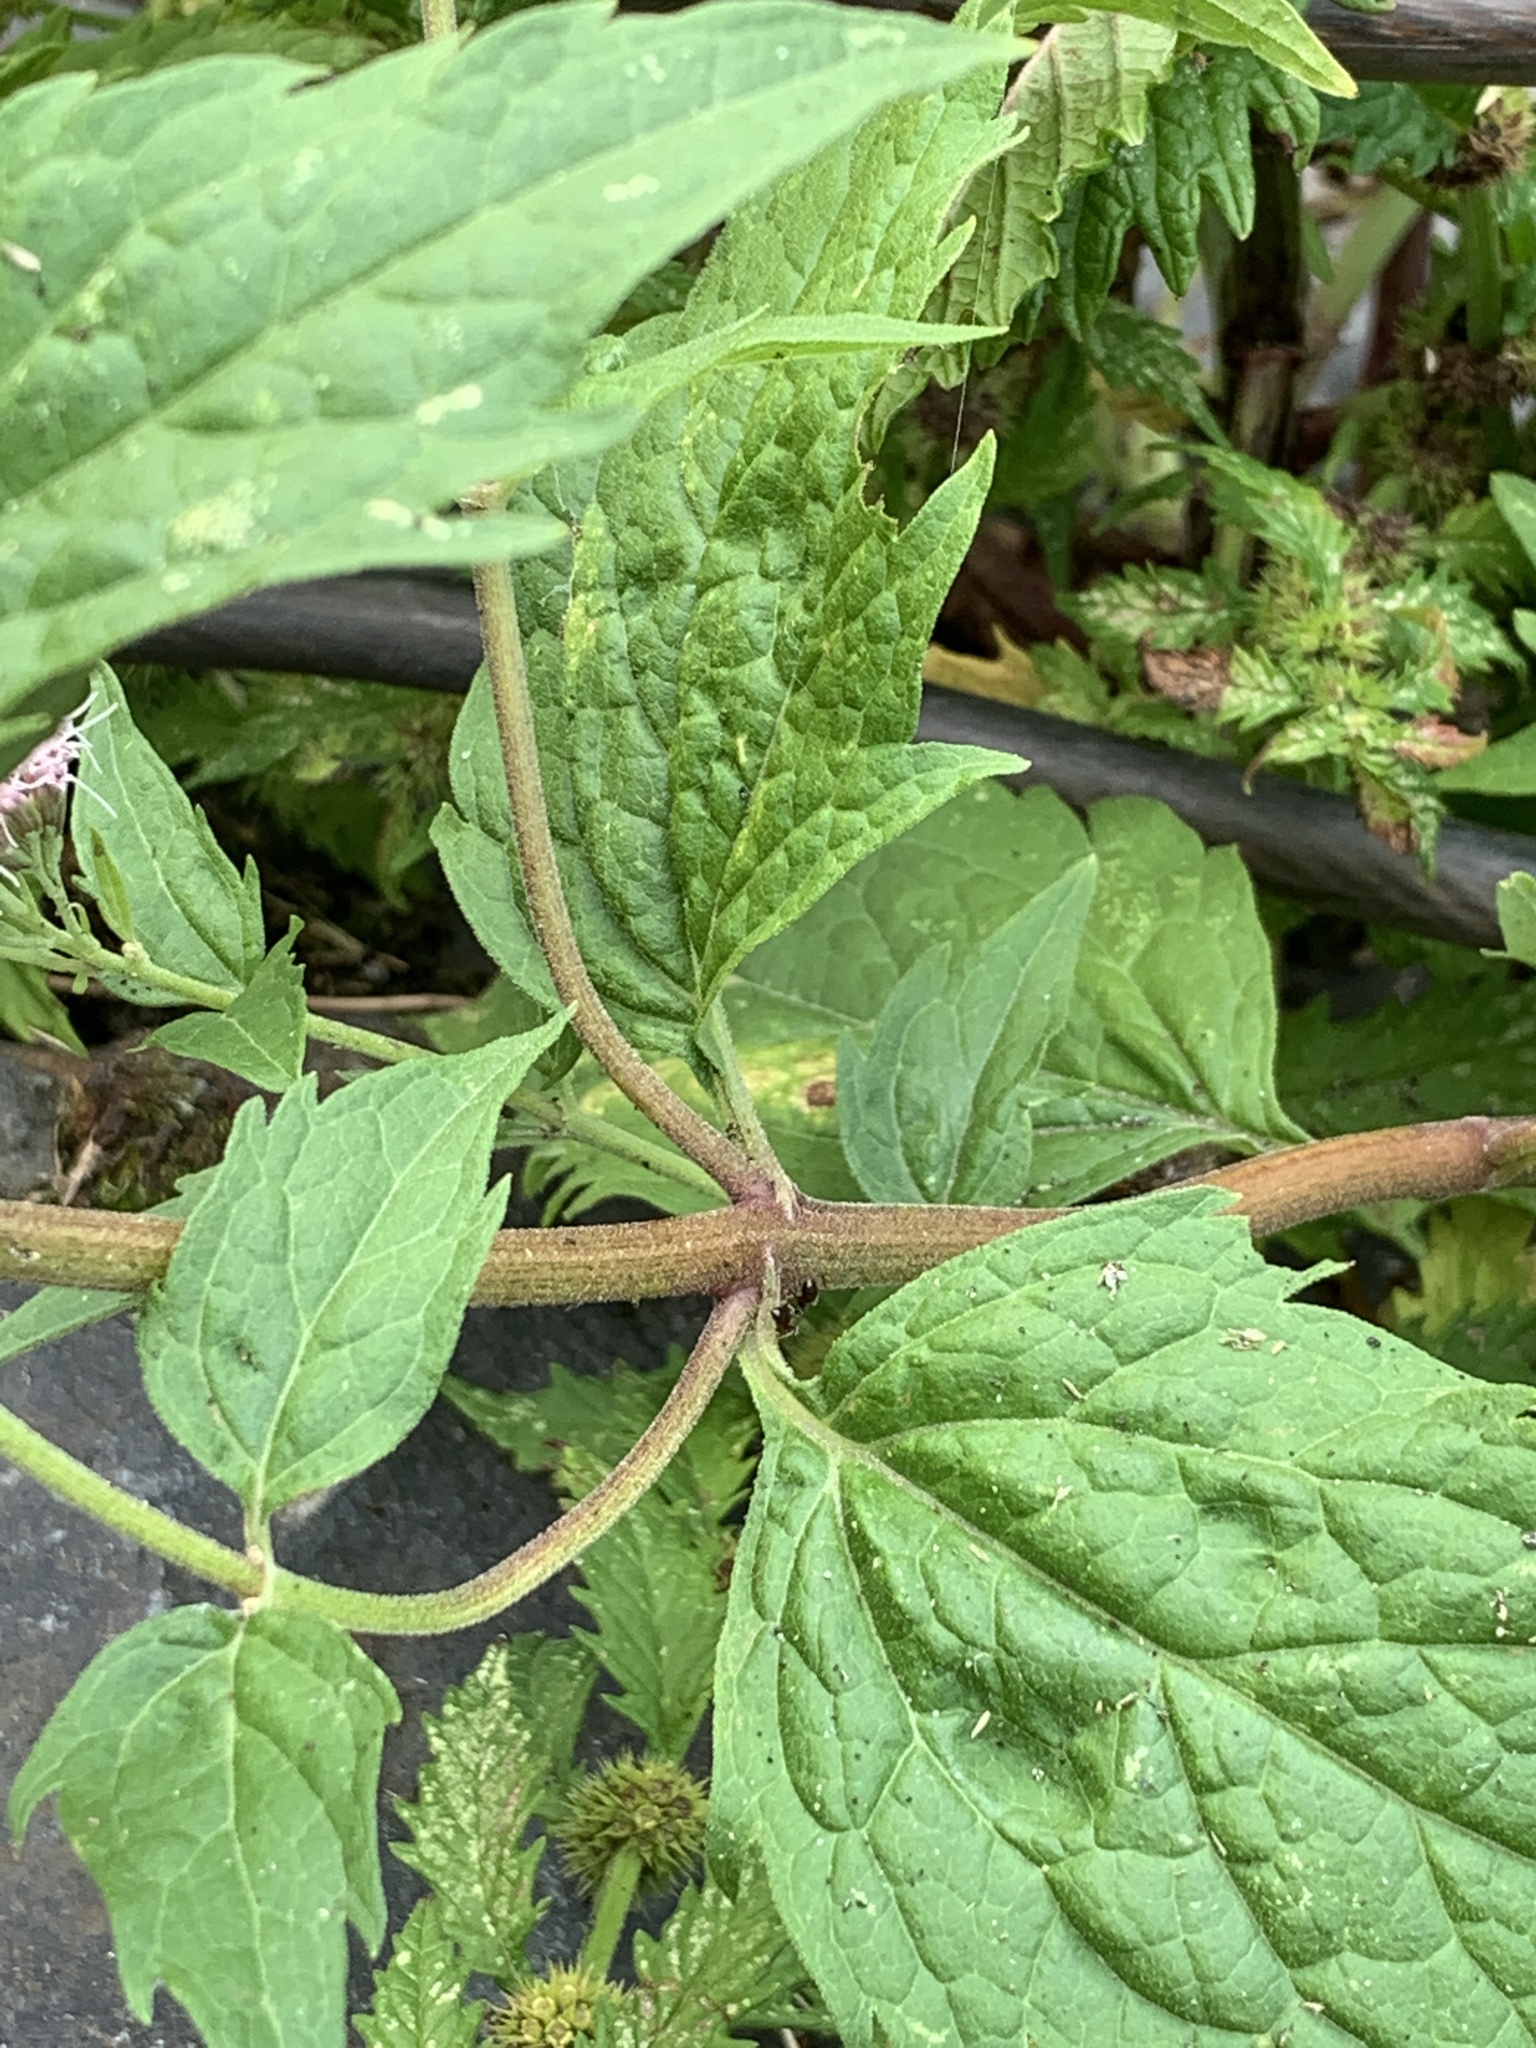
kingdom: Plantae
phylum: Tracheophyta
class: Magnoliopsida
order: Asterales
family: Asteraceae
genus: Eupatorium
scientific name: Eupatorium cannabinum
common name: Hemp-agrimony
